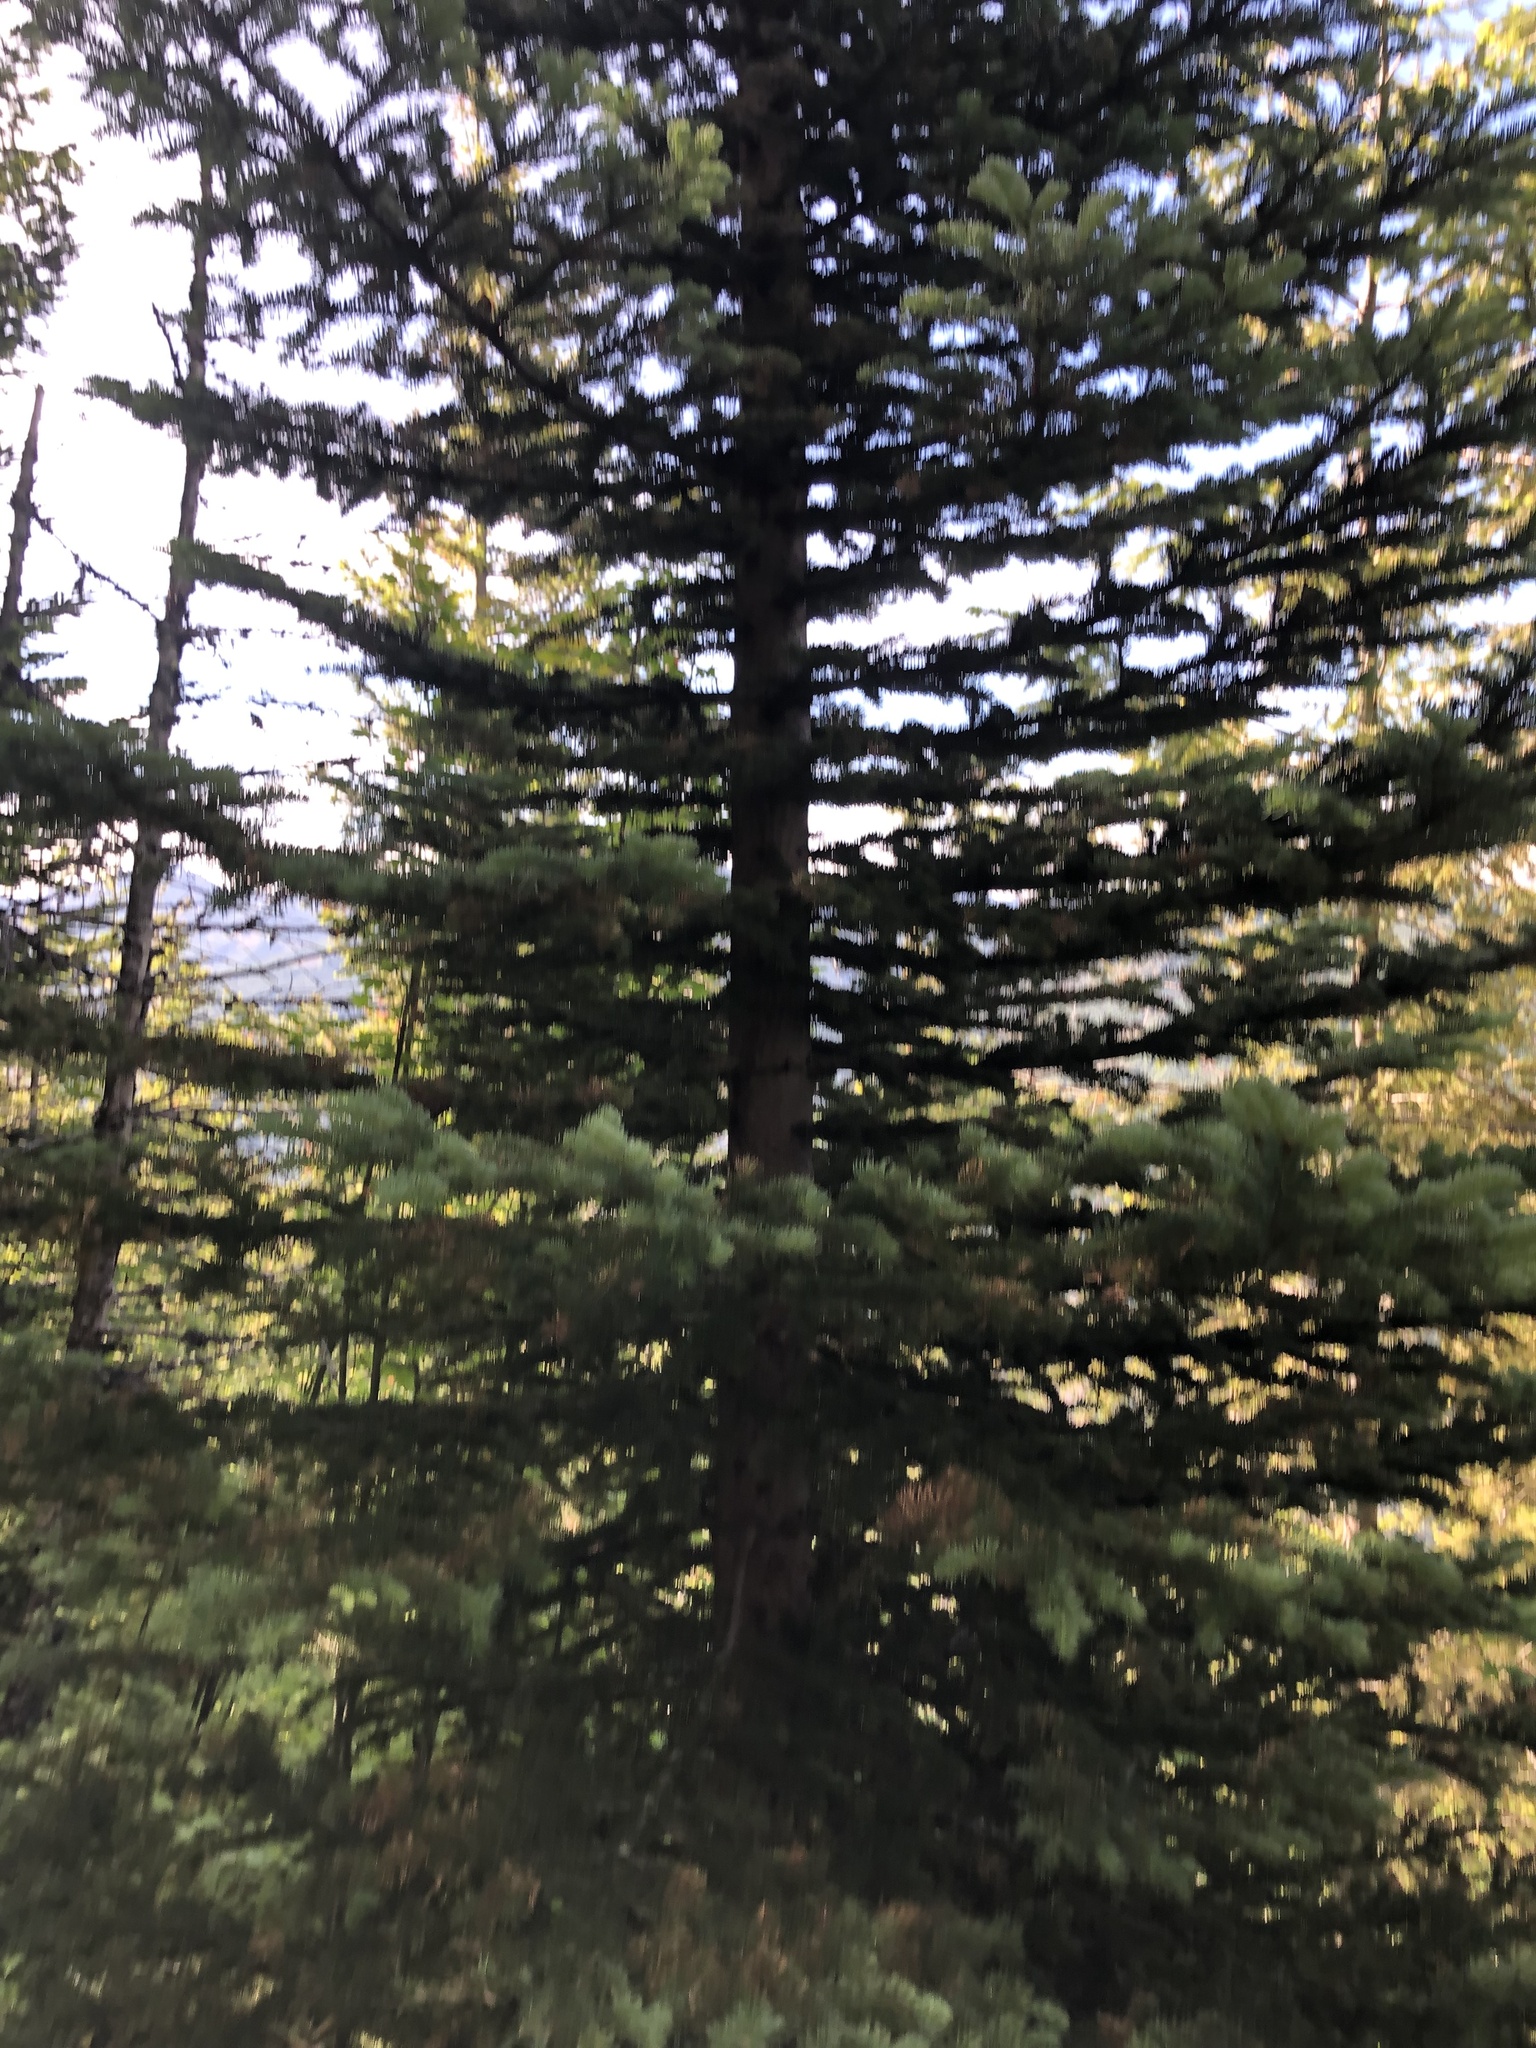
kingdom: Plantae
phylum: Tracheophyta
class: Pinopsida
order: Pinales
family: Pinaceae
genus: Abies
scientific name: Abies lasiocarpa
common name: Subalpine fir
